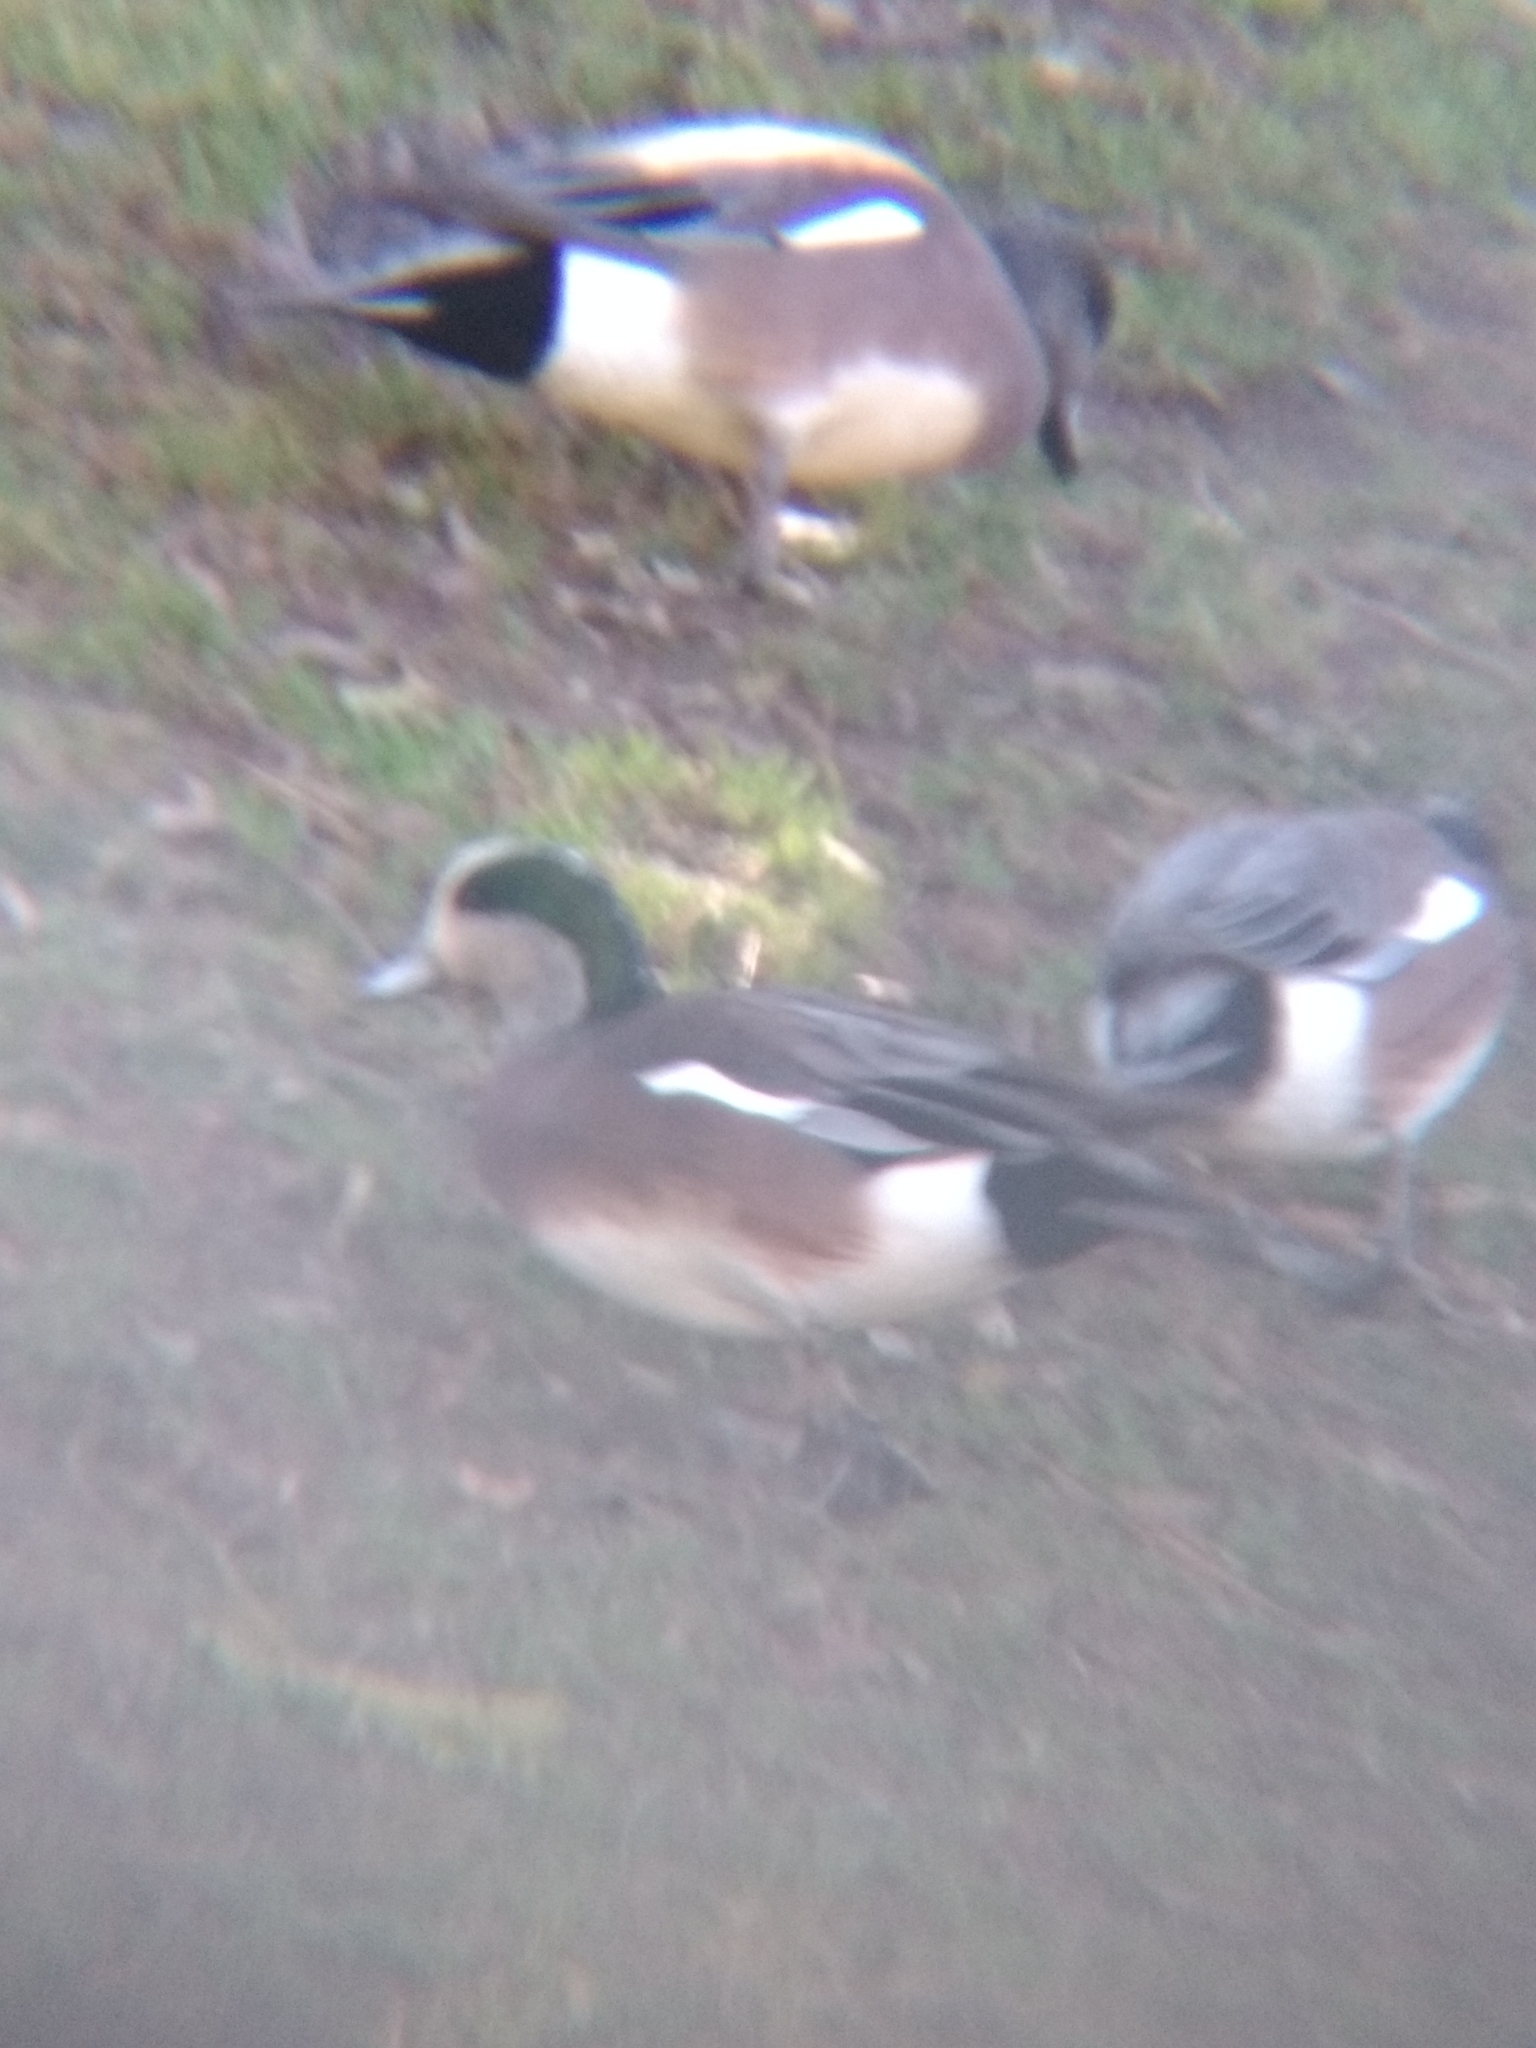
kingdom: Animalia
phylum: Chordata
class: Aves
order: Anseriformes
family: Anatidae
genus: Mareca
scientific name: Mareca americana
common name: American wigeon
